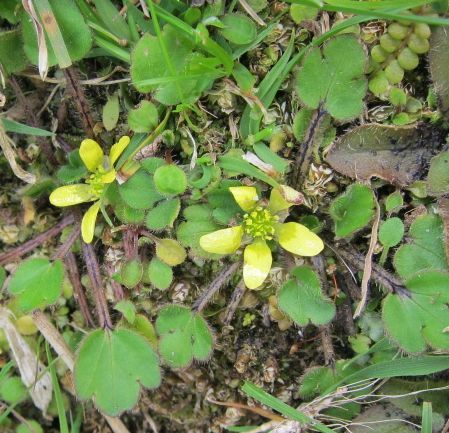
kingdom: Plantae
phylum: Tracheophyta
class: Magnoliopsida
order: Ranunculales
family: Ranunculaceae
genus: Ranunculus
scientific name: Ranunculus foliosus
